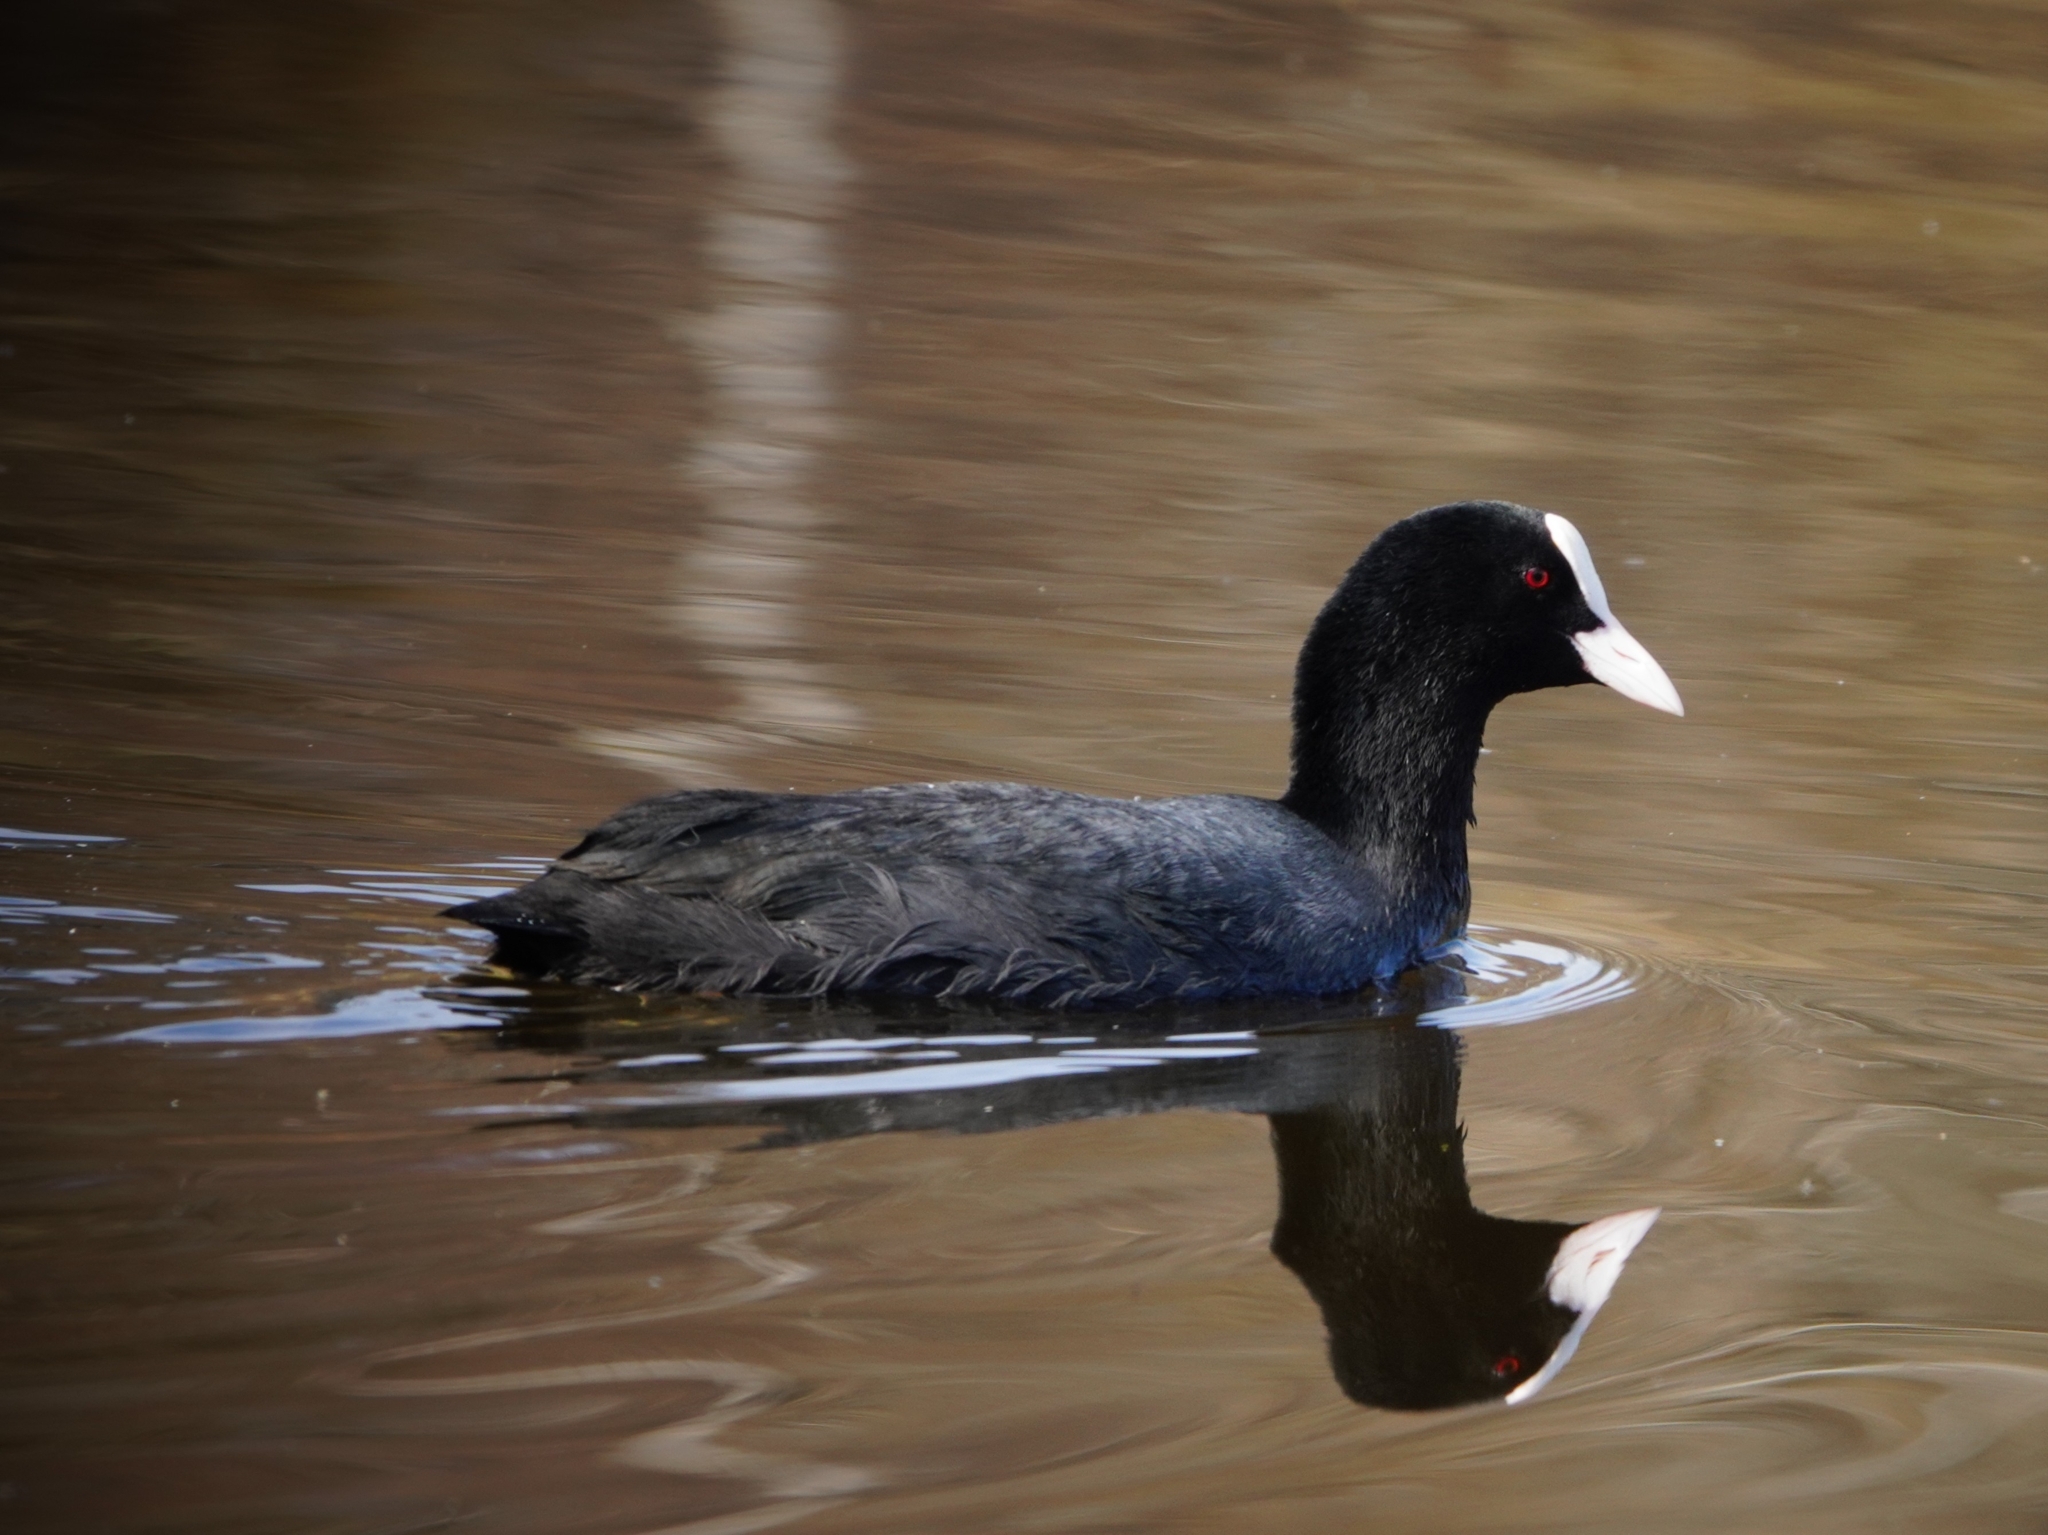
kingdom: Animalia
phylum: Chordata
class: Aves
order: Gruiformes
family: Rallidae
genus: Fulica
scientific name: Fulica atra
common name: Eurasian coot
